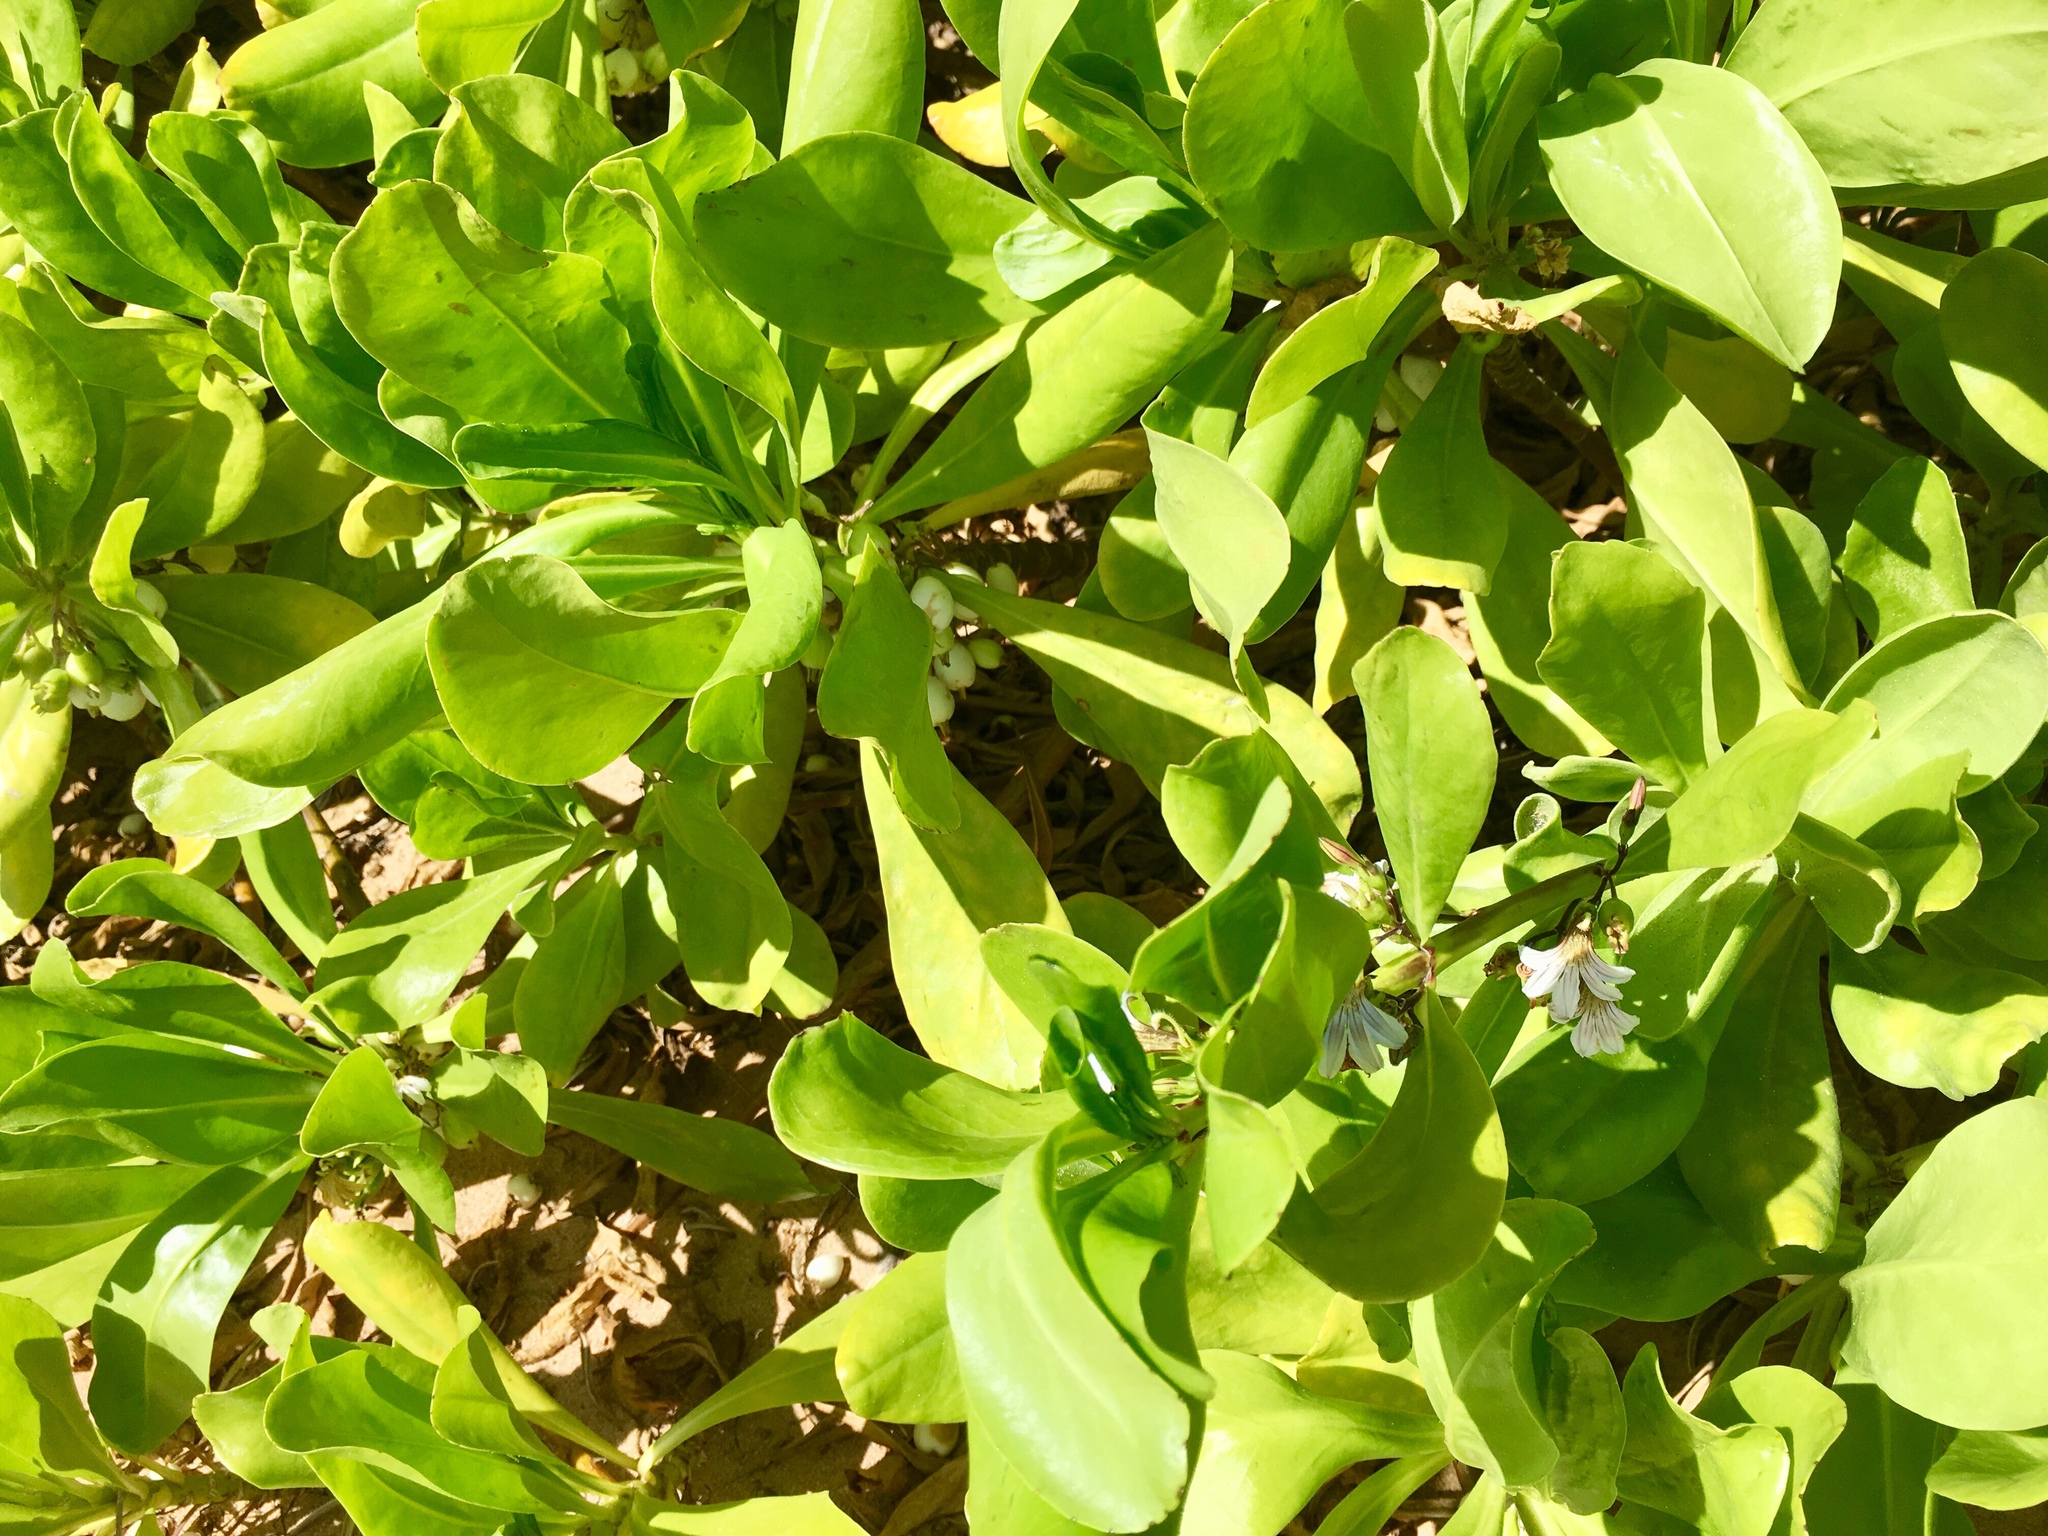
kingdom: Plantae
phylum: Tracheophyta
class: Magnoliopsida
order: Asterales
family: Goodeniaceae
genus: Scaevola
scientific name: Scaevola taccada
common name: Sea lettucetree
